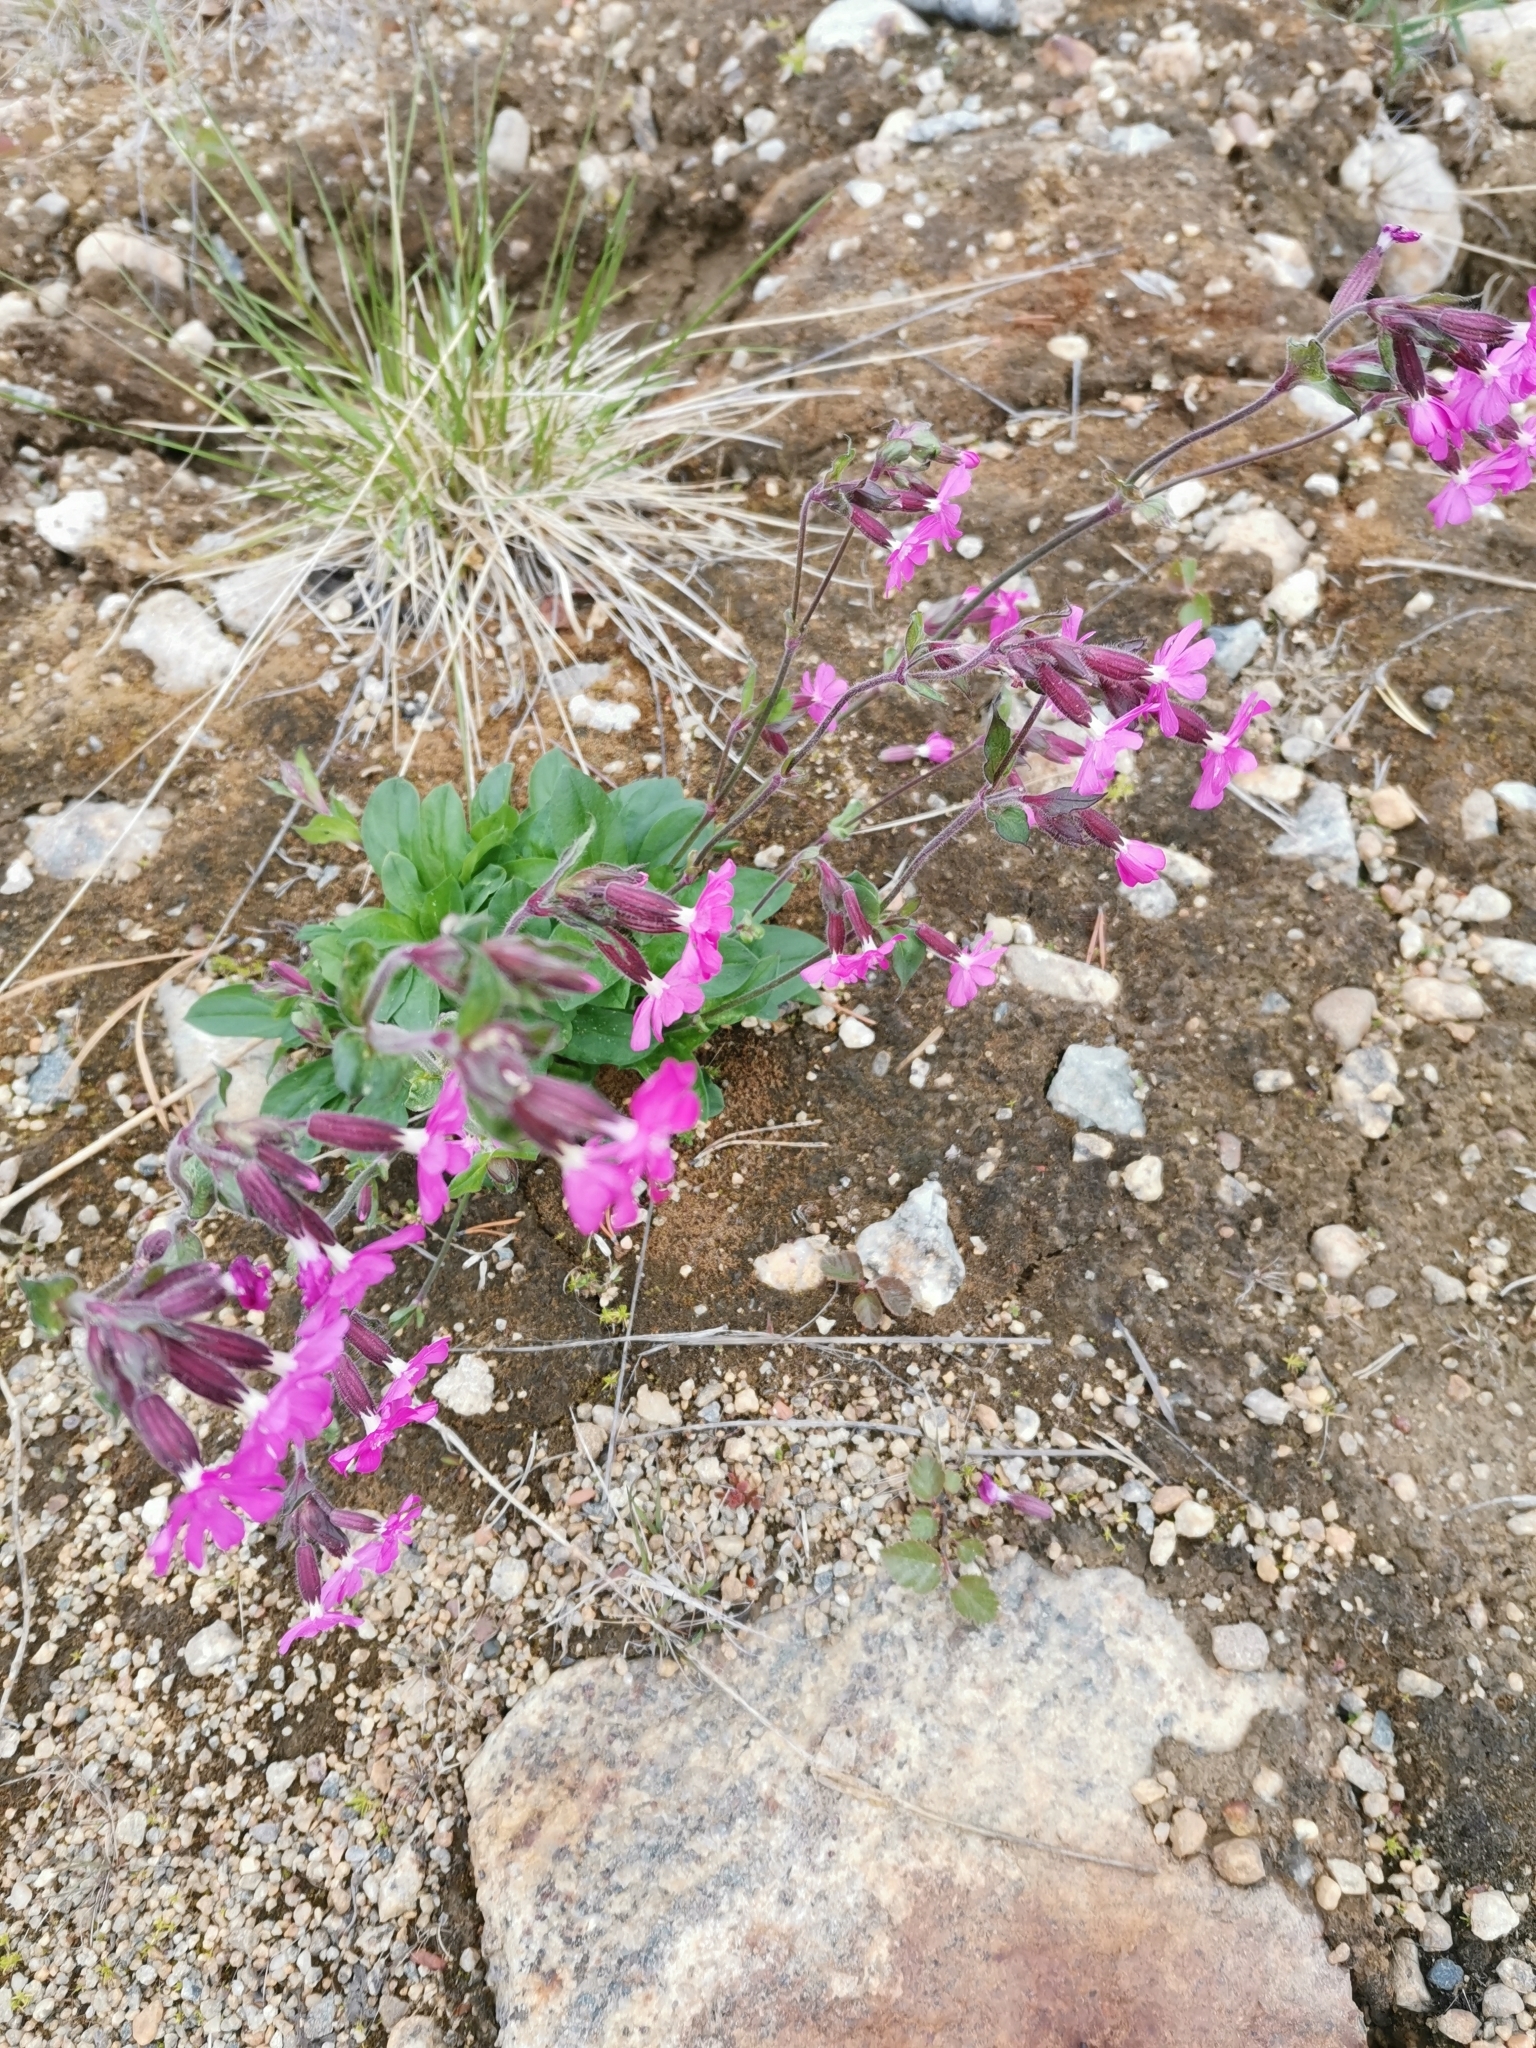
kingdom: Plantae
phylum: Tracheophyta
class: Magnoliopsida
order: Caryophyllales
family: Caryophyllaceae
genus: Silene
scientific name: Silene dioica
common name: Red campion
